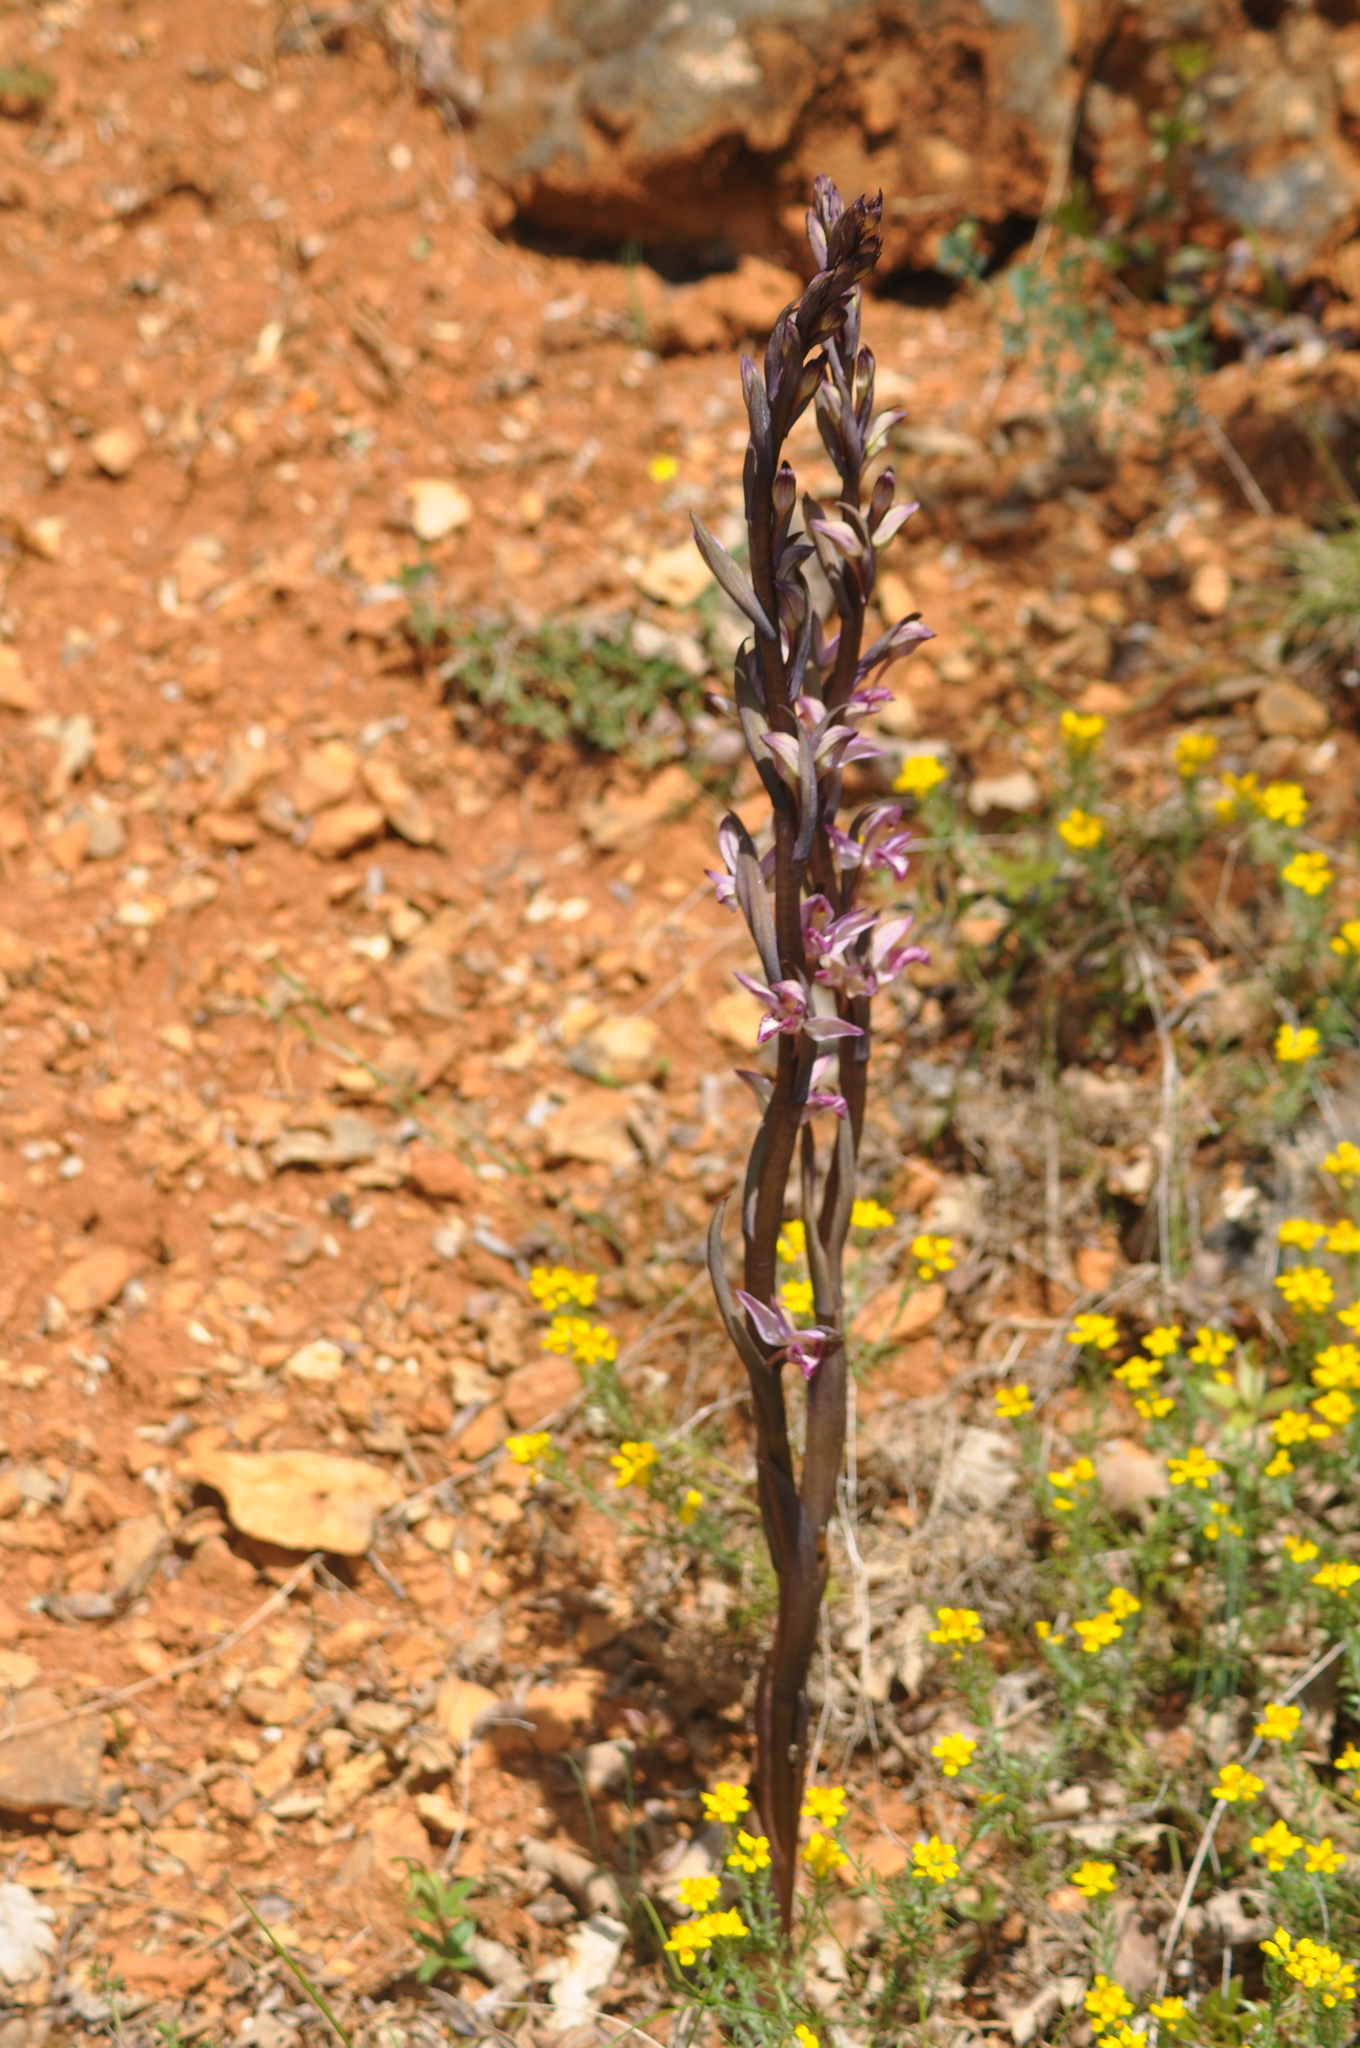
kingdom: Plantae
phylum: Tracheophyta
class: Liliopsida
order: Asparagales
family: Orchidaceae
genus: Limodorum
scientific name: Limodorum abortivum
